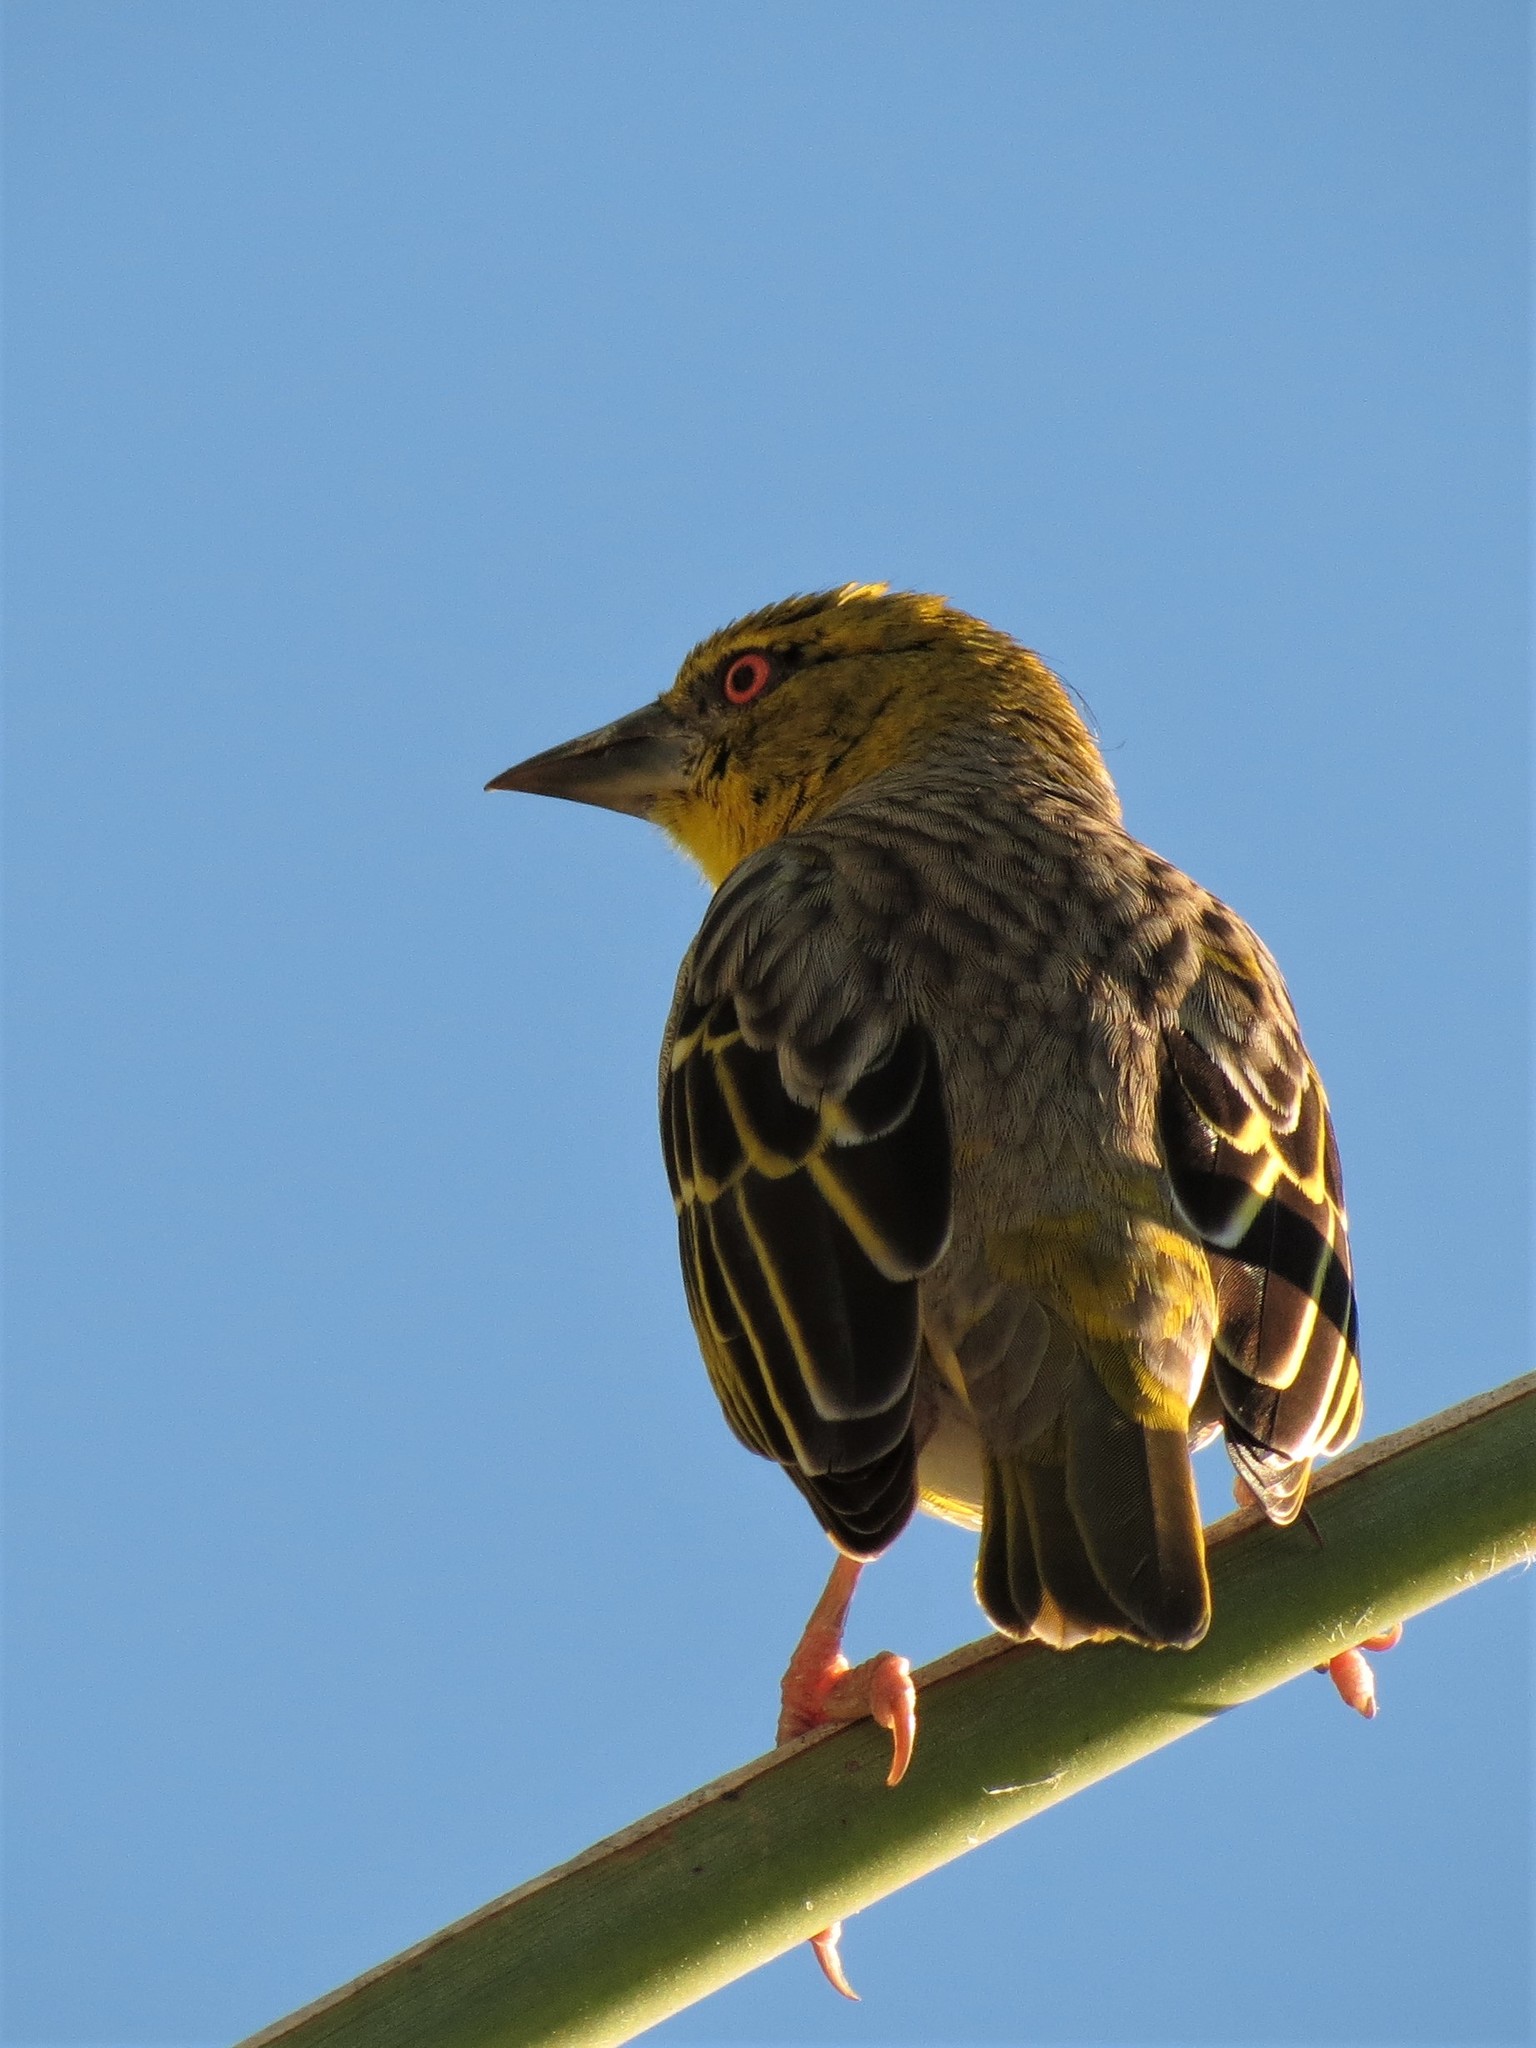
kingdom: Animalia
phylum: Chordata
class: Aves
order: Passeriformes
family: Ploceidae
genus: Ploceus
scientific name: Ploceus ocularis
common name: Spectacled weaver
